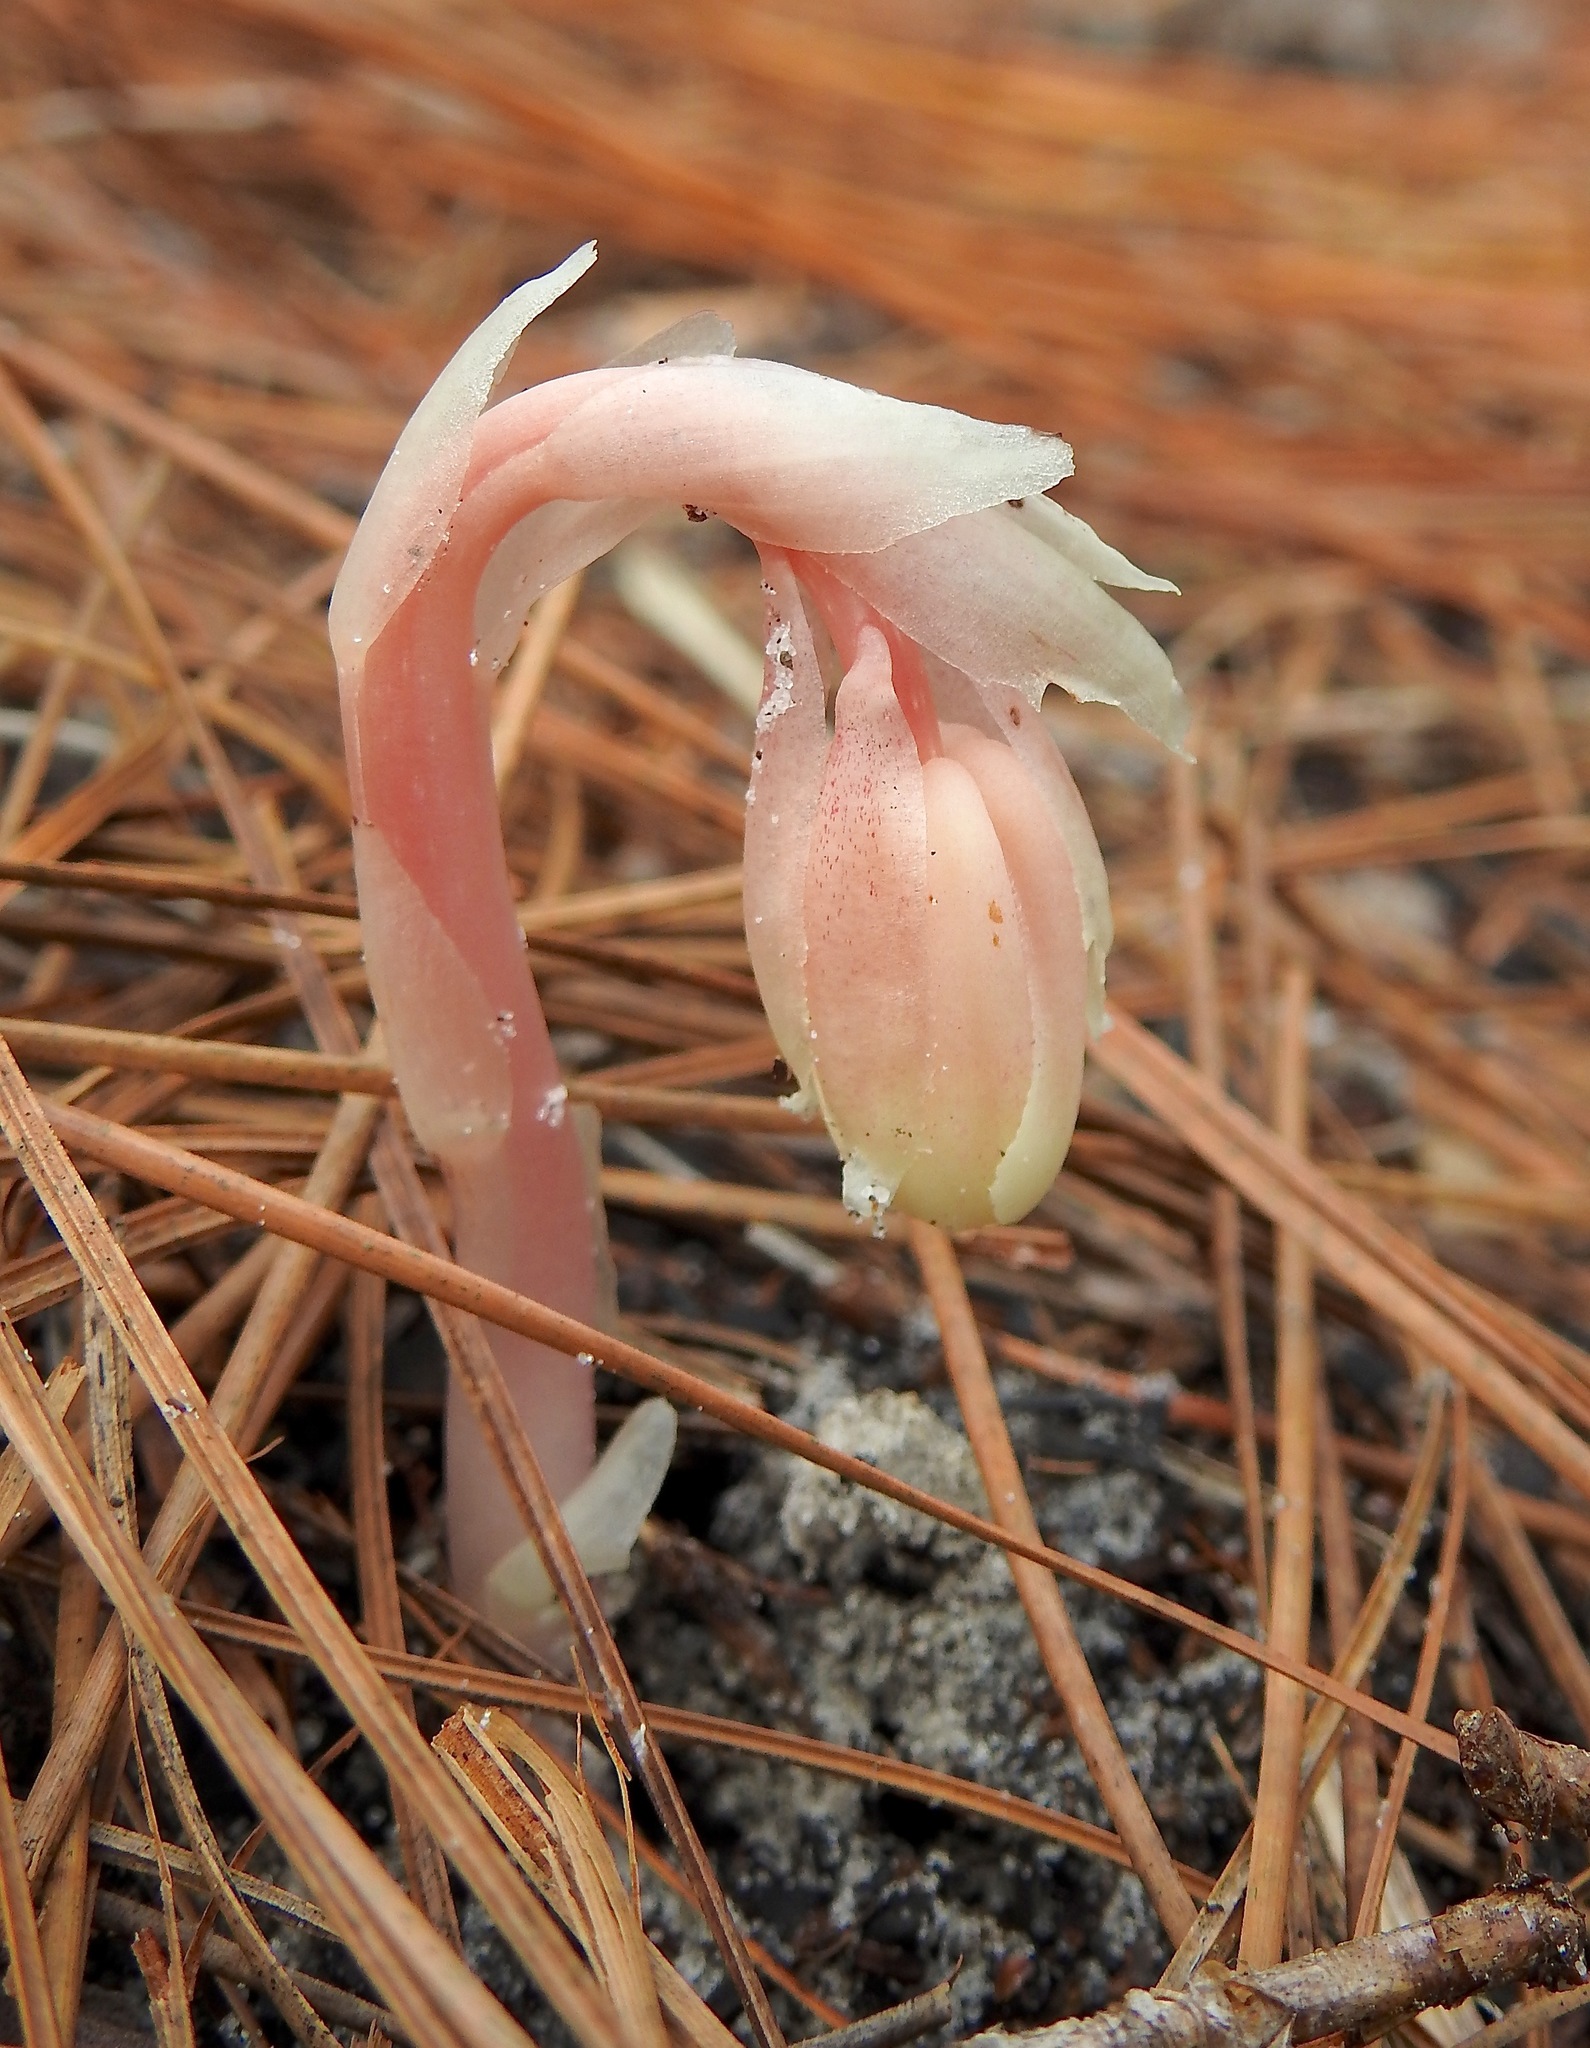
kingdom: Plantae
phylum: Tracheophyta
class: Magnoliopsida
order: Ericales
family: Ericaceae
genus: Monotropa
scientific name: Monotropa uniflora
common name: Convulsion root
